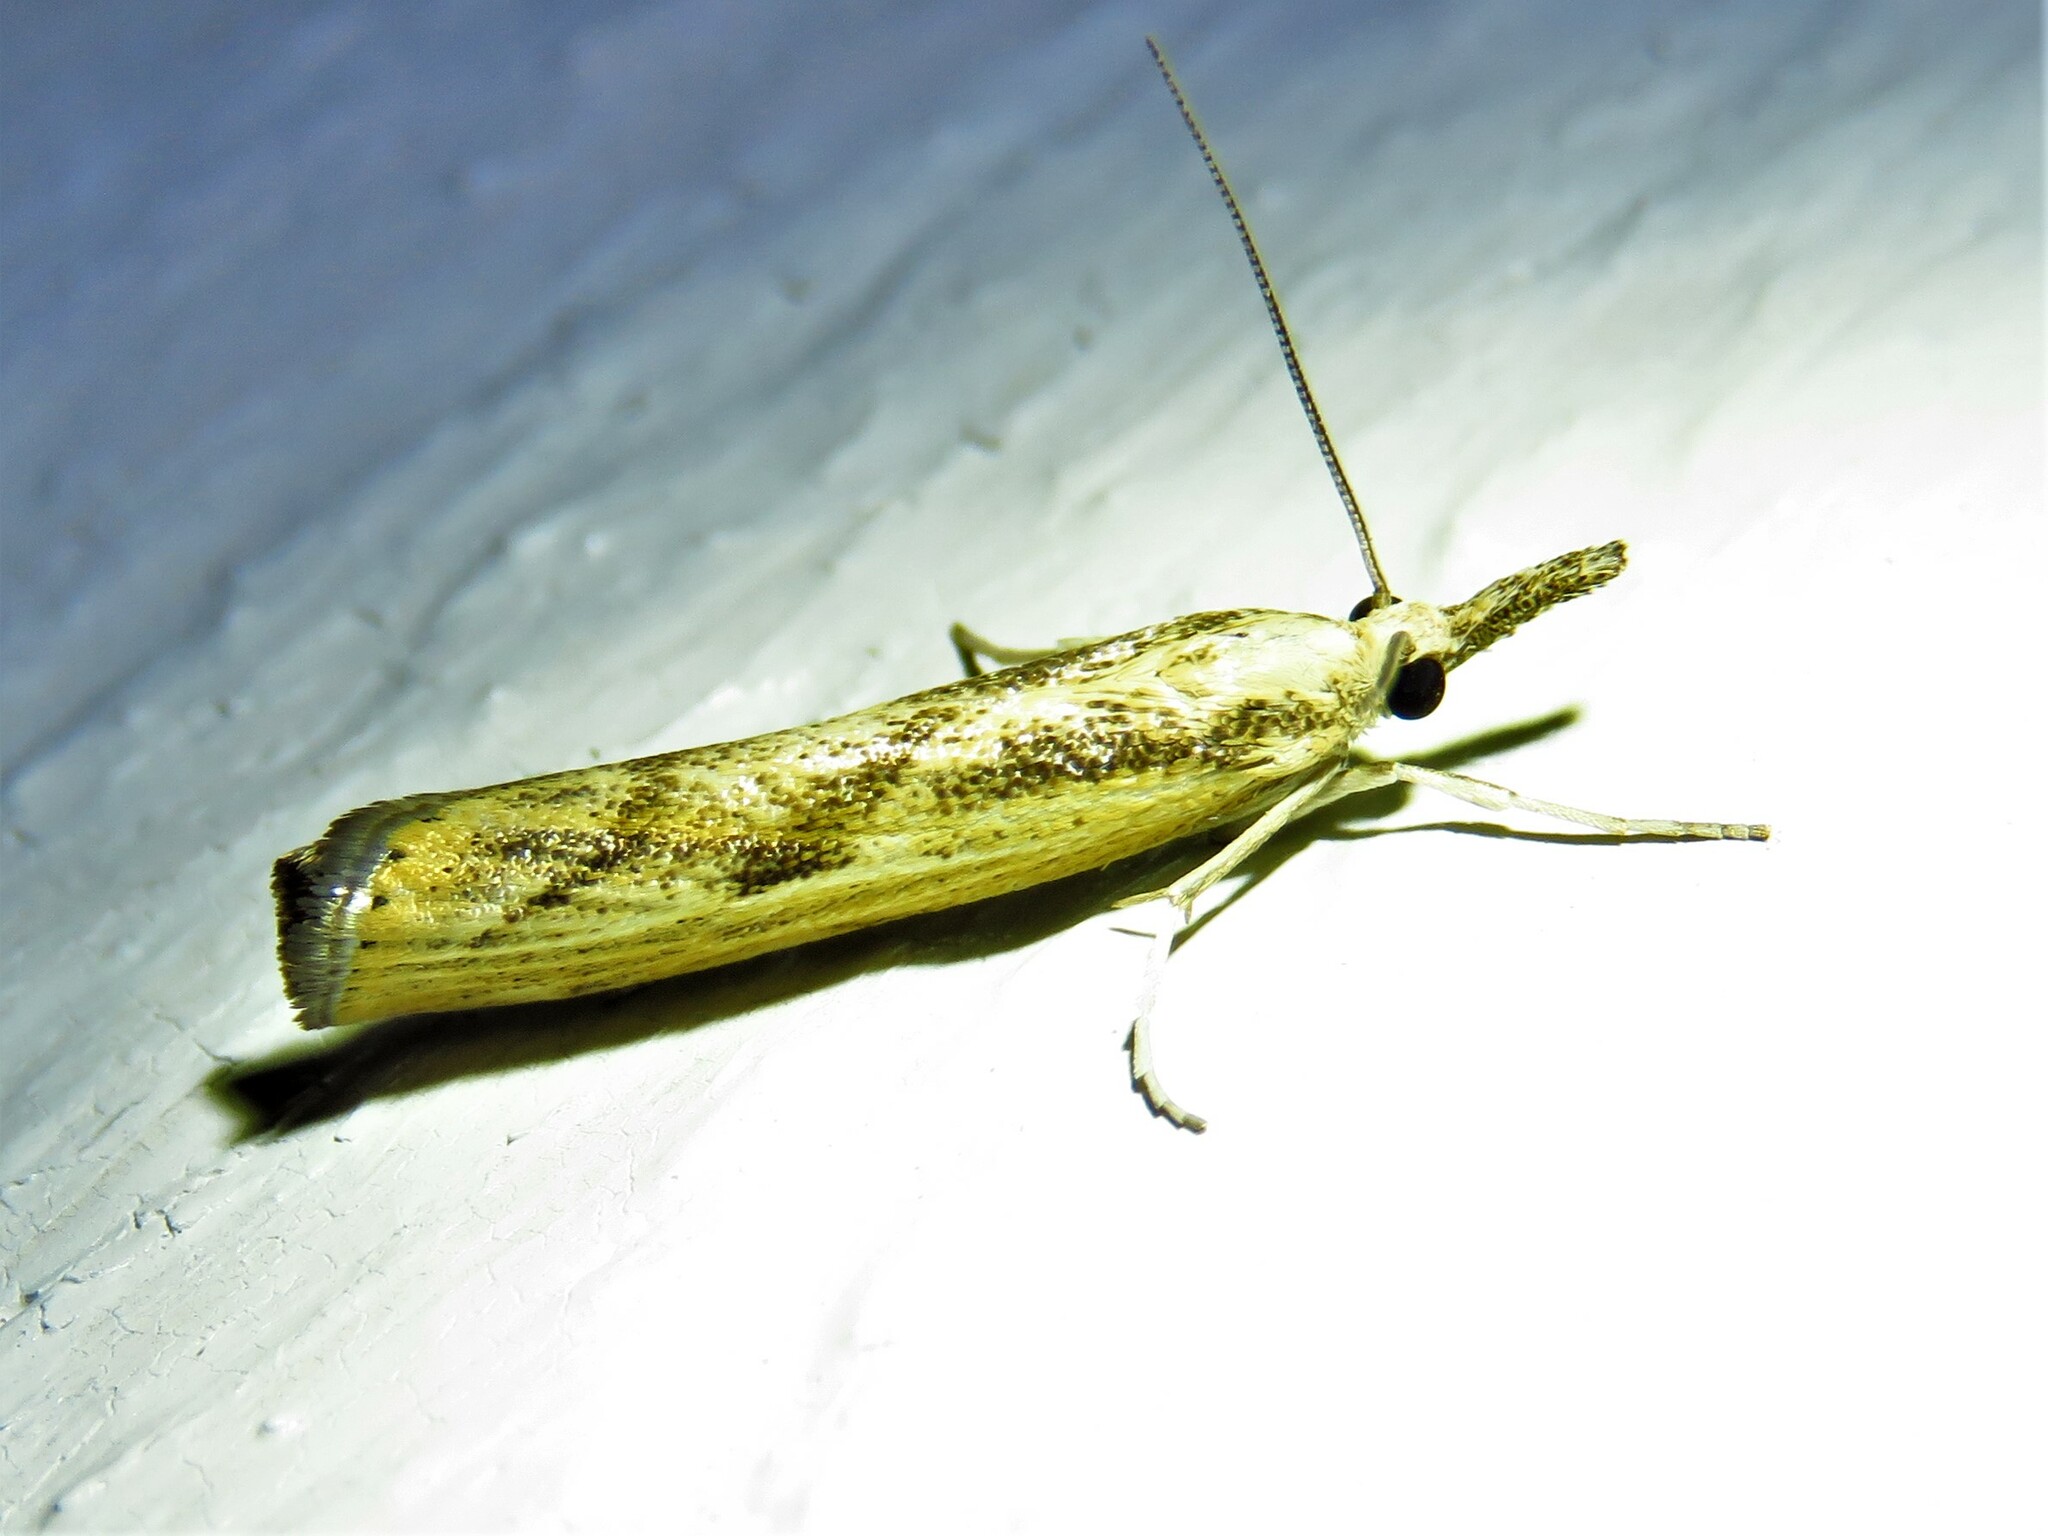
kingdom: Animalia
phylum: Arthropoda
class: Insecta
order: Lepidoptera
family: Crambidae
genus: Agriphila
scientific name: Agriphila inquinatella
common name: Barred grass-veneer
